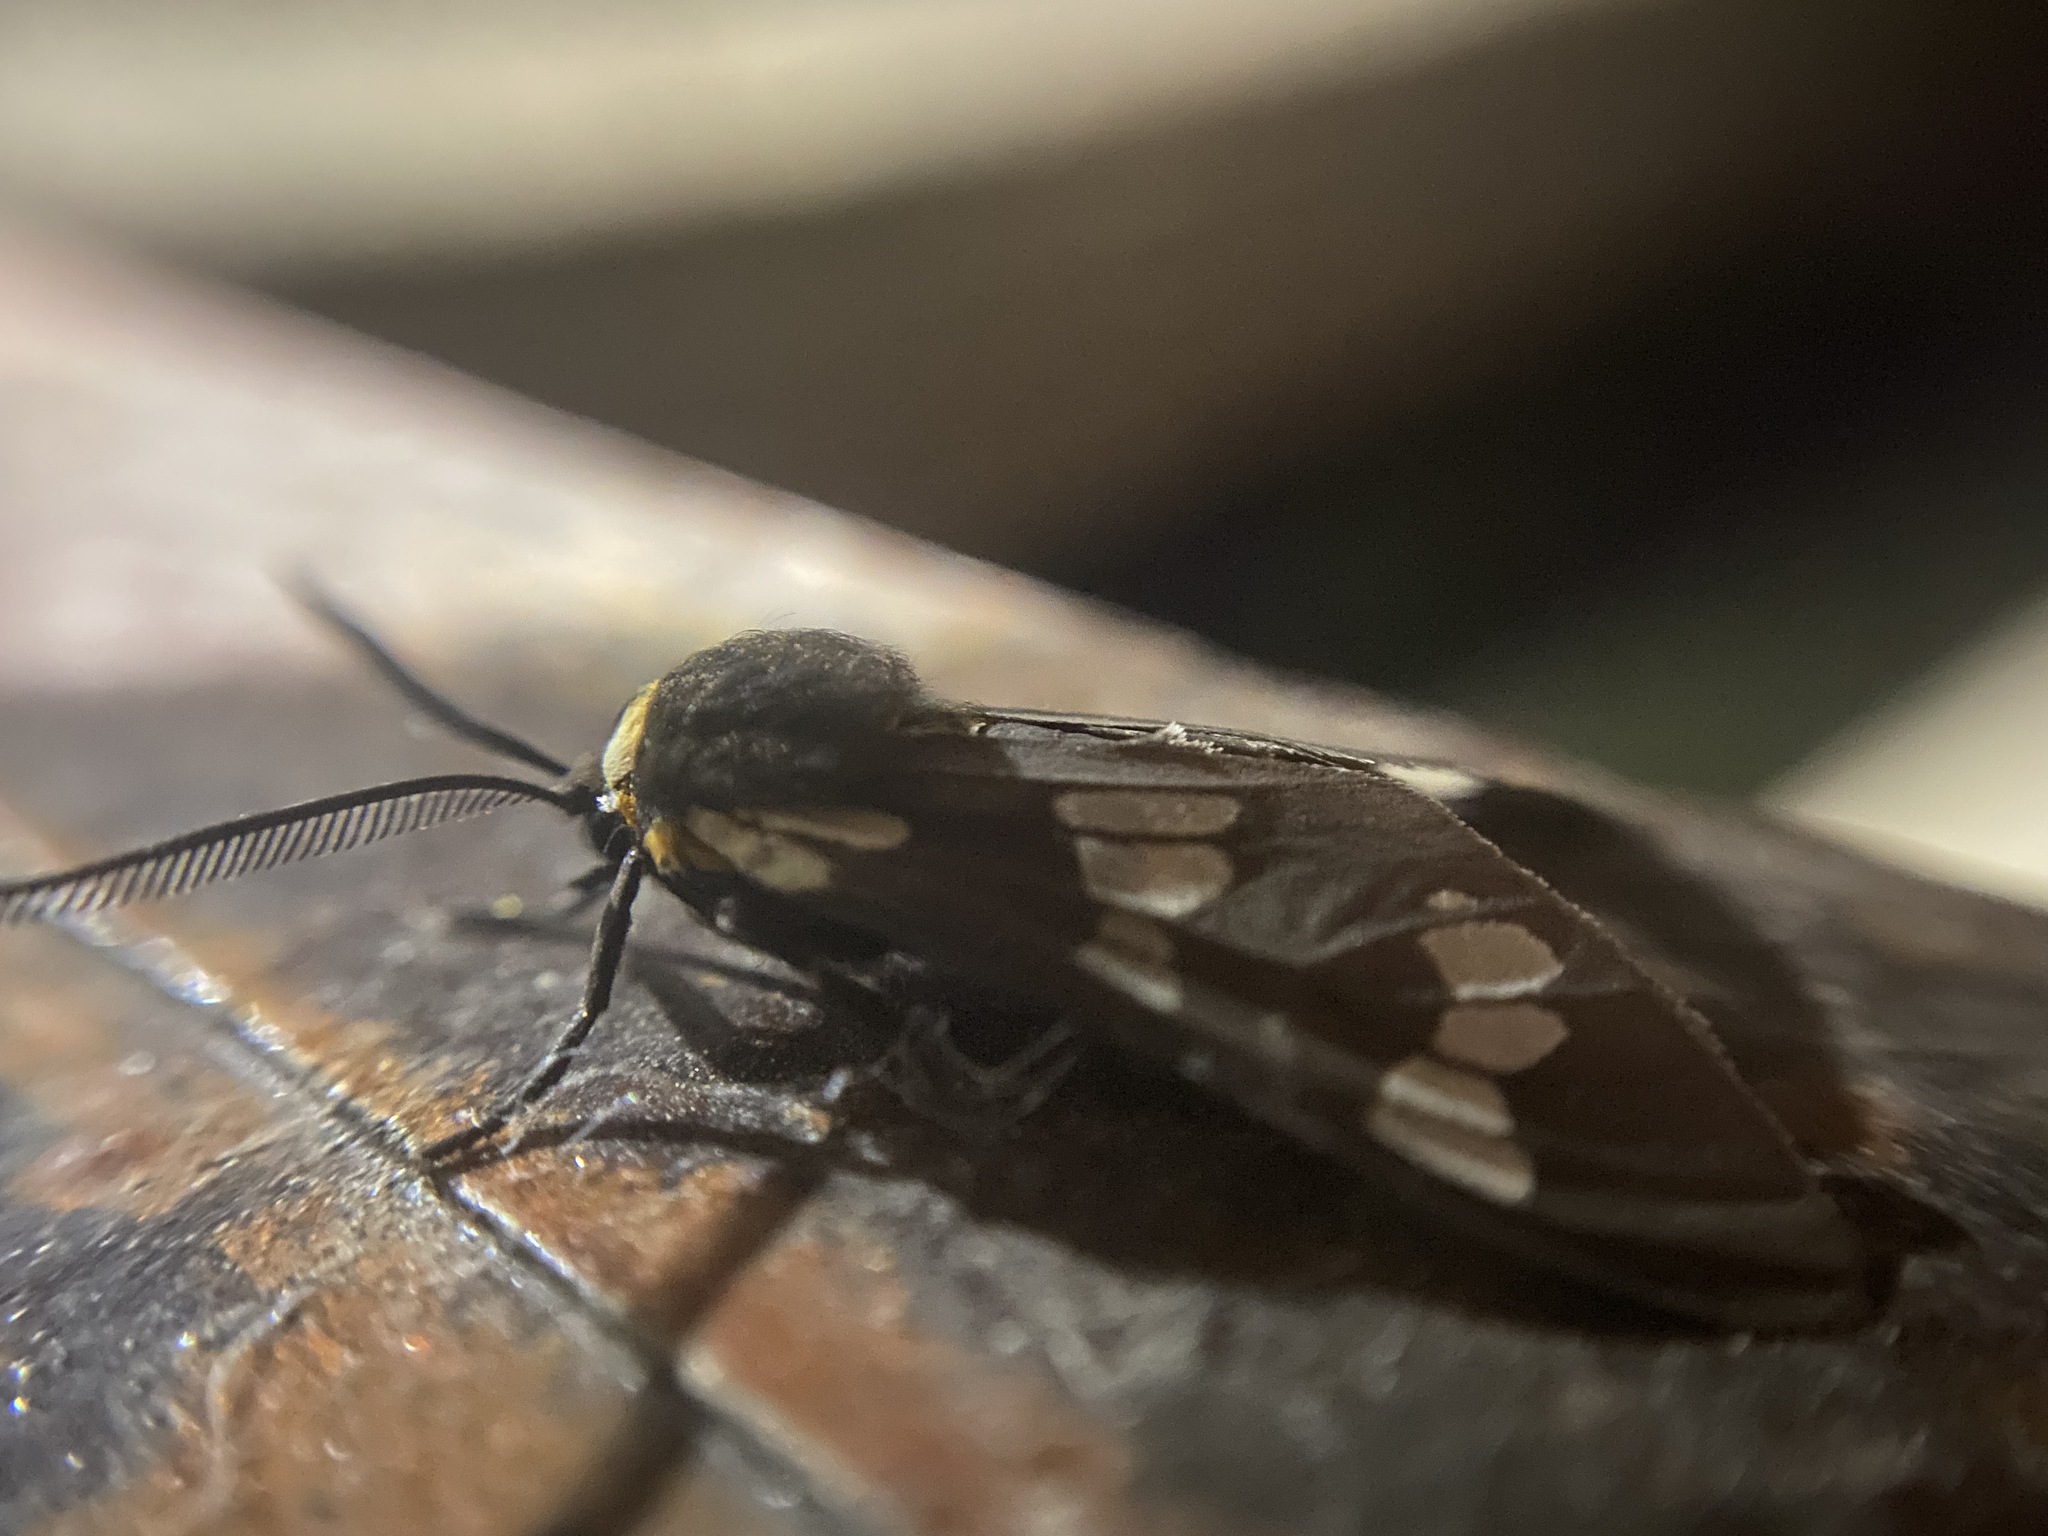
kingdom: Animalia
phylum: Arthropoda
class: Insecta
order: Lepidoptera
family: Erebidae
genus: Eurata
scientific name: Eurata
